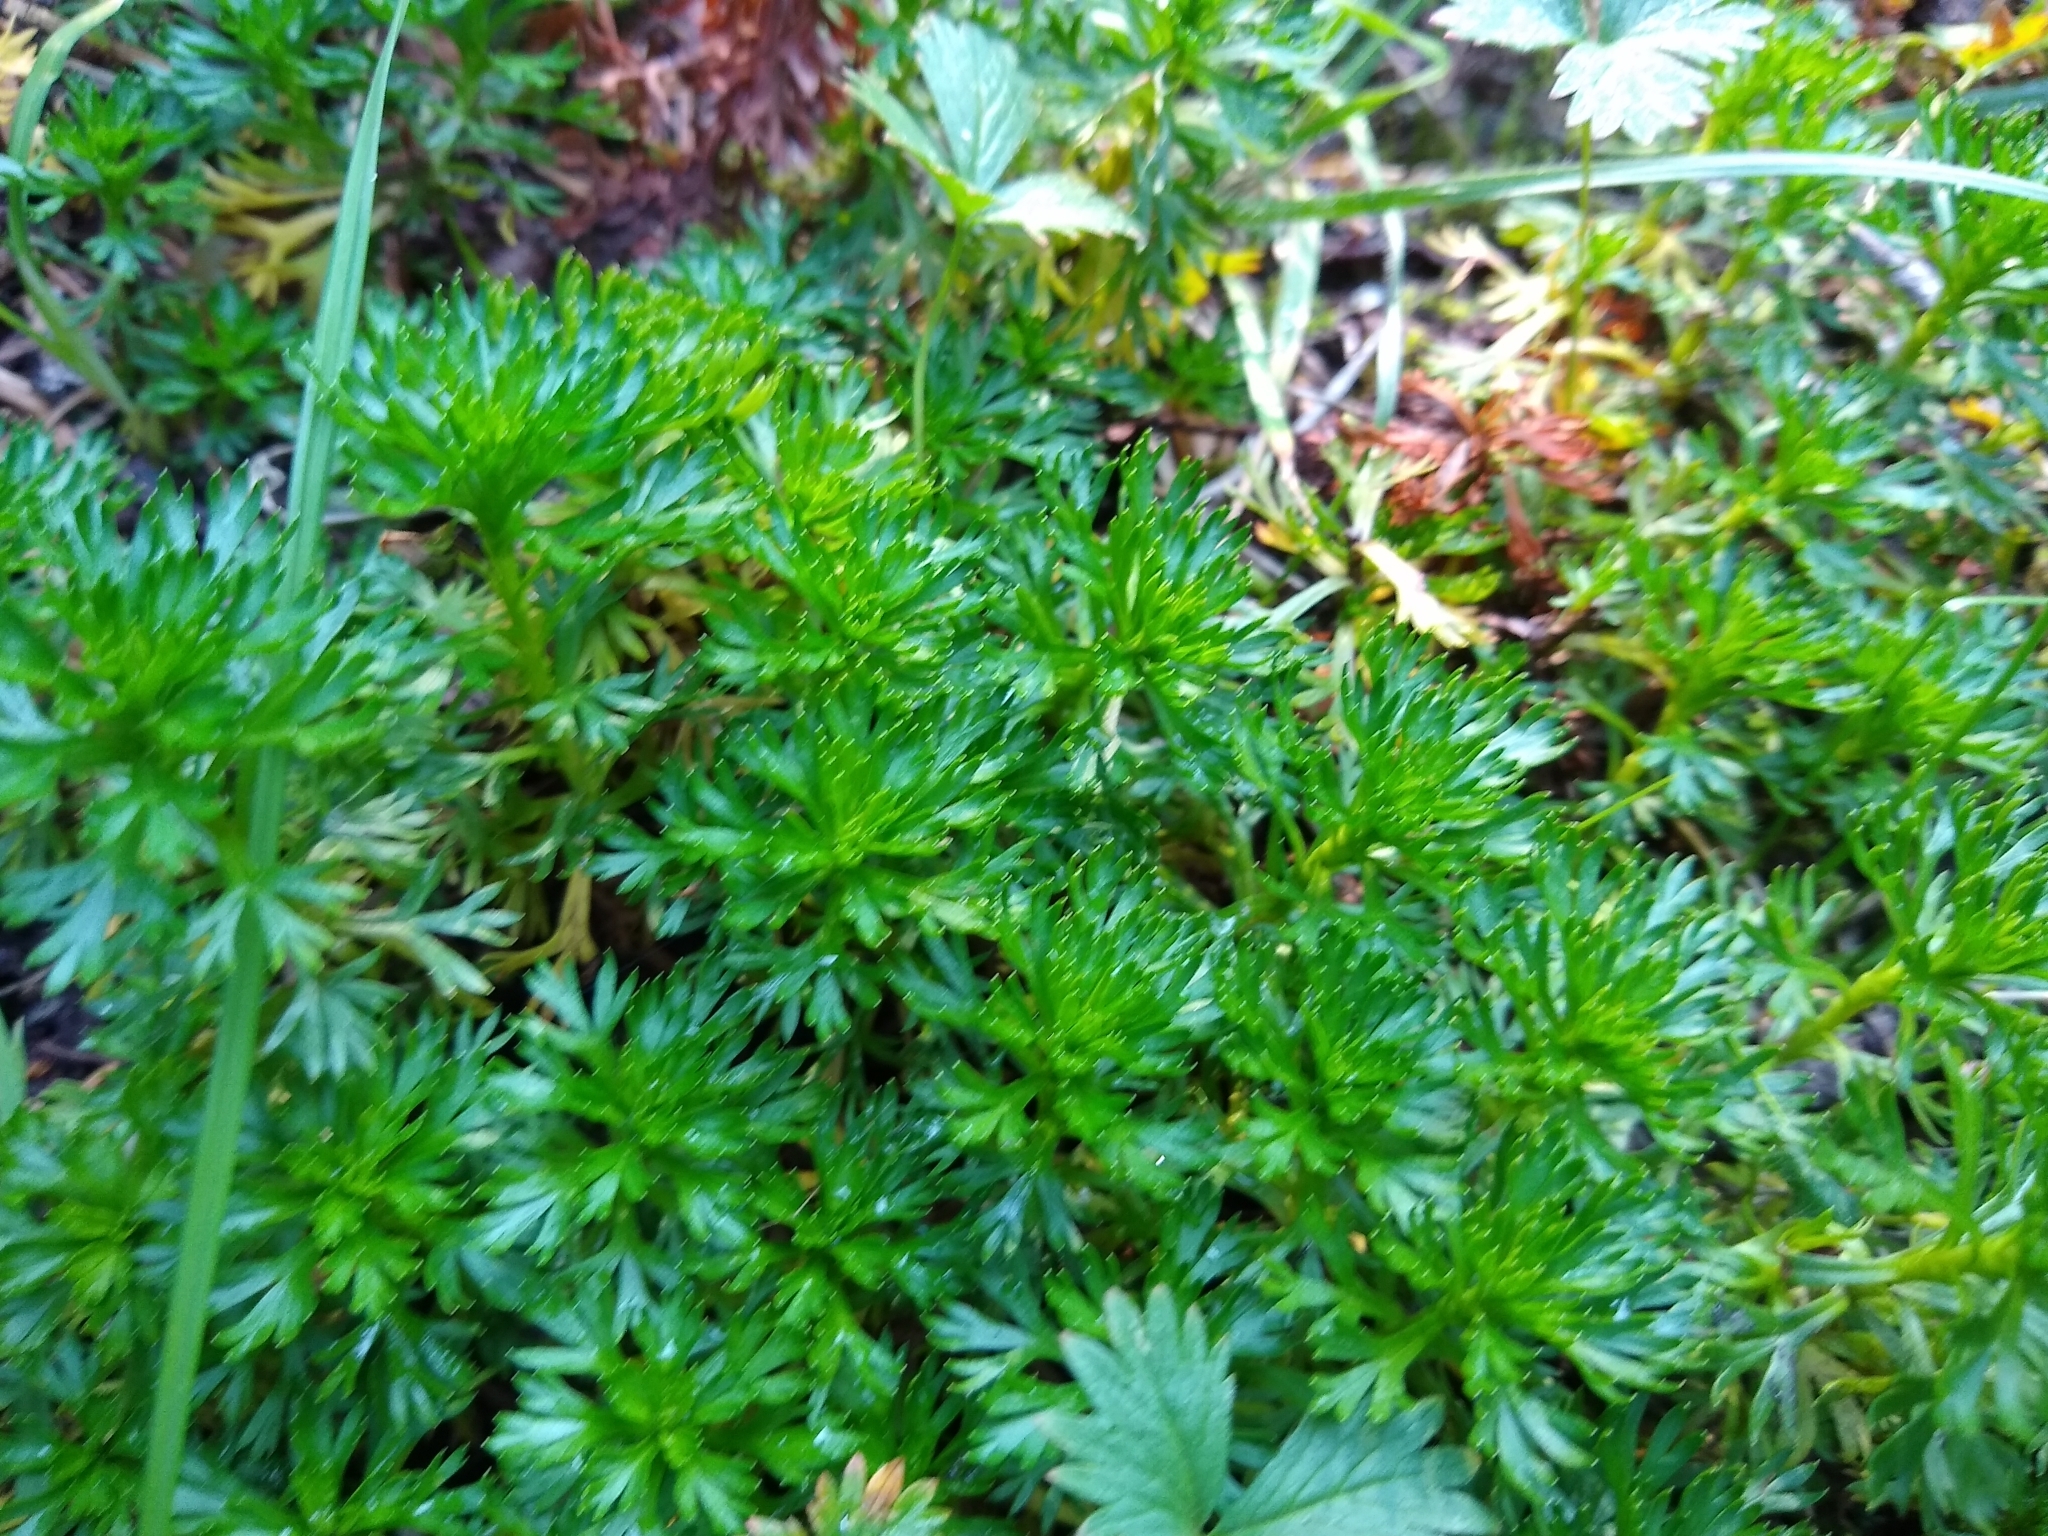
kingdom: Plantae
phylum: Tracheophyta
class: Magnoliopsida
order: Rosales
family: Rosaceae
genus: Luetkea
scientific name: Luetkea pectinata
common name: Partridgefoot
